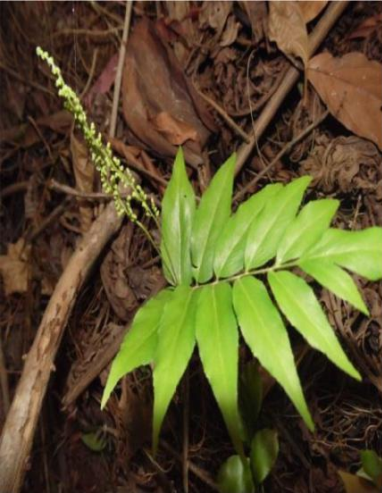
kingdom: Plantae
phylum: Tracheophyta
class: Polypodiopsida
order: Schizaeales
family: Anemiaceae
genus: Anemia
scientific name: Anemia phyllitidis
